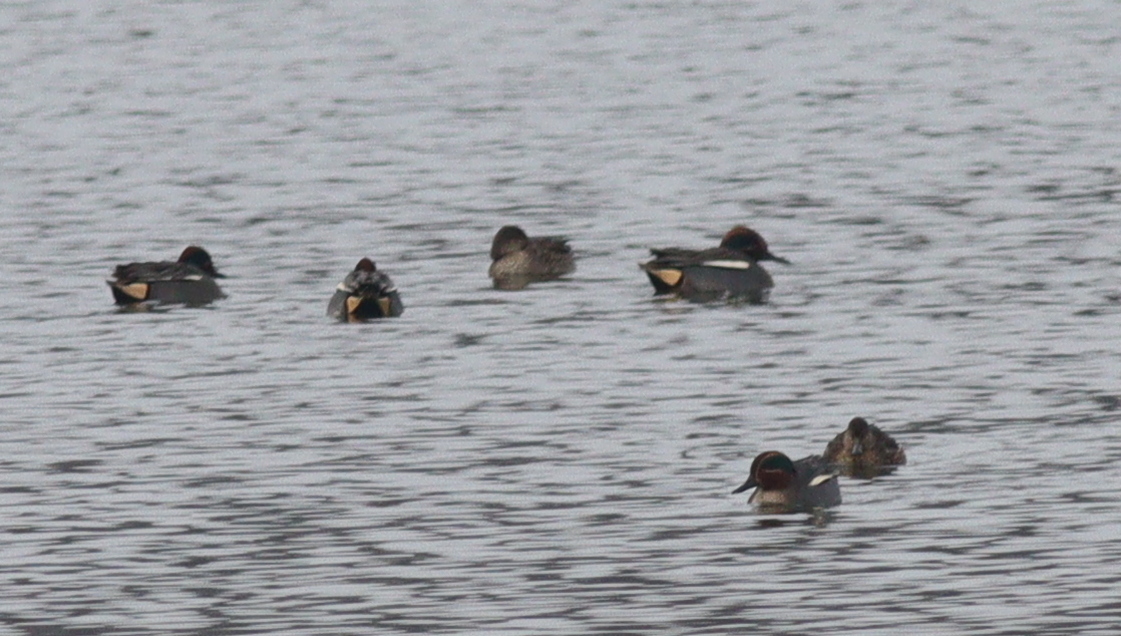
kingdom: Animalia
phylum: Chordata
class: Aves
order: Anseriformes
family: Anatidae
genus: Anas
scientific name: Anas crecca
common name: Eurasian teal
